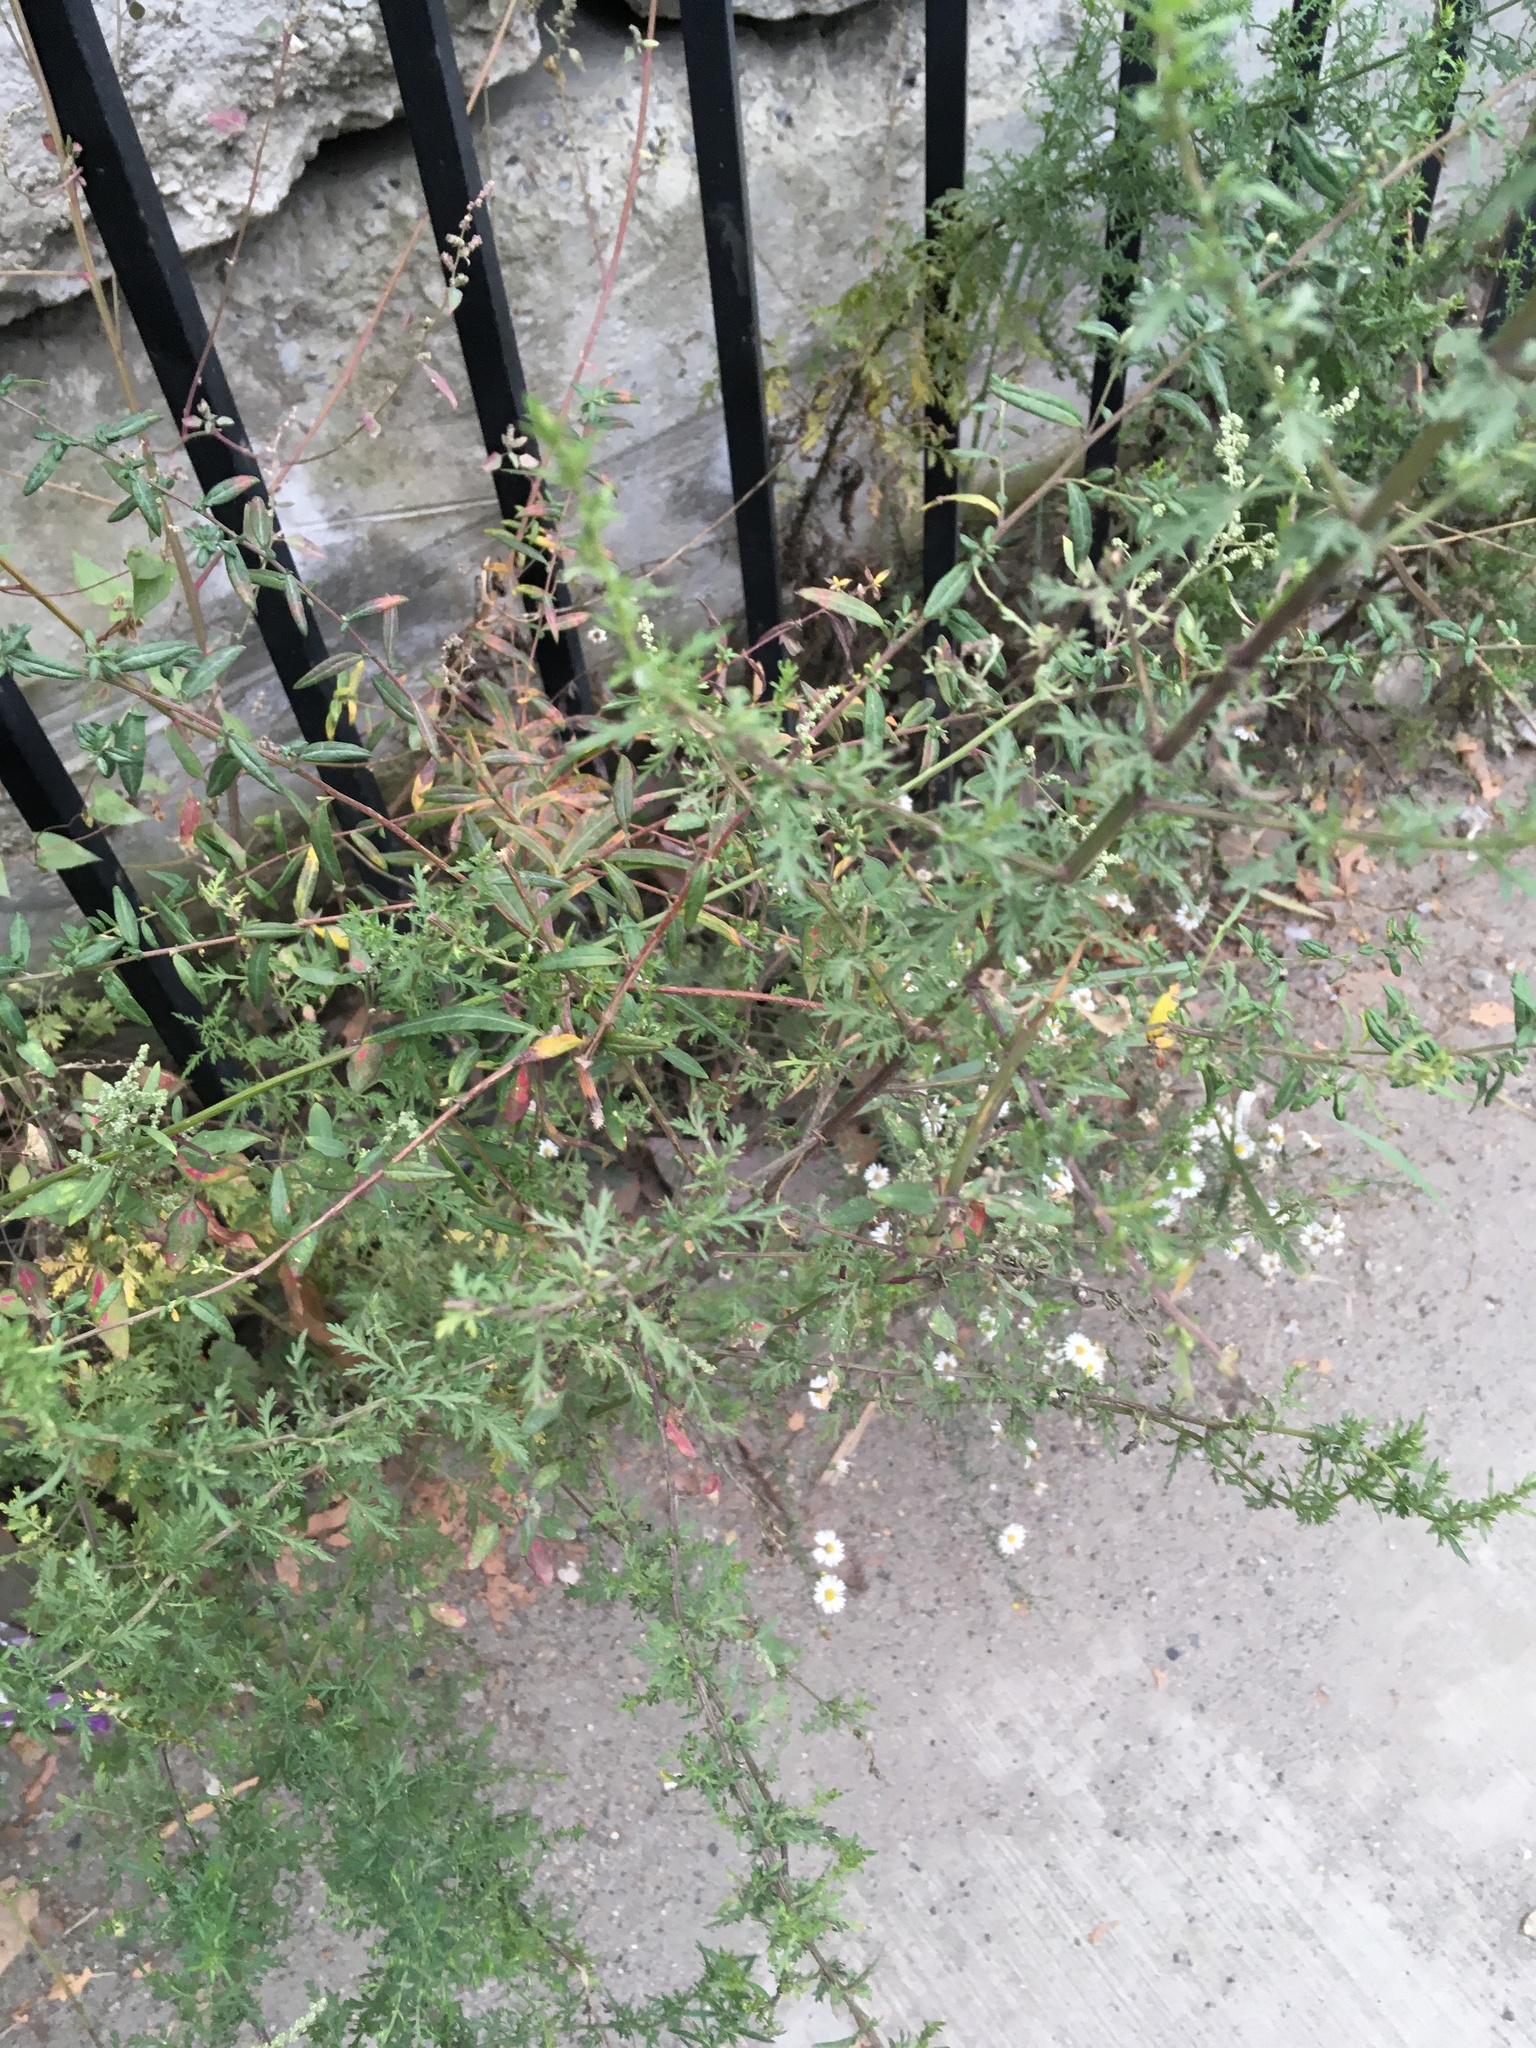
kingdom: Plantae
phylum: Tracheophyta
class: Magnoliopsida
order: Asterales
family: Asteraceae
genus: Artemisia
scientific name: Artemisia annua
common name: Sweet sagewort
